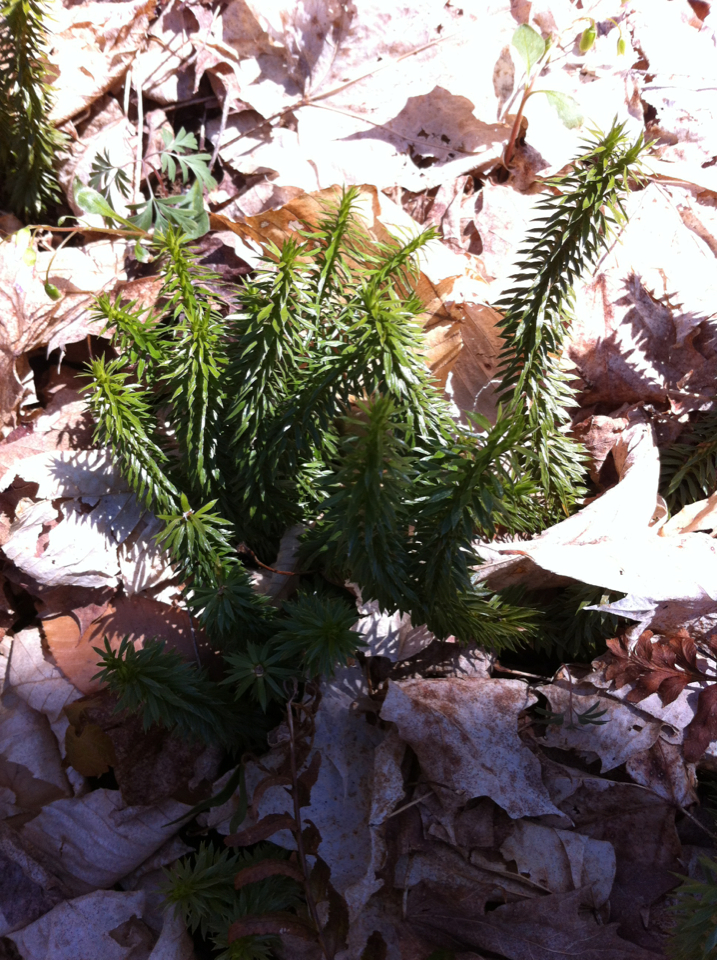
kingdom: Plantae
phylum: Tracheophyta
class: Lycopodiopsida
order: Lycopodiales
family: Lycopodiaceae
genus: Huperzia
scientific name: Huperzia lucidula
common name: Shining clubmoss
